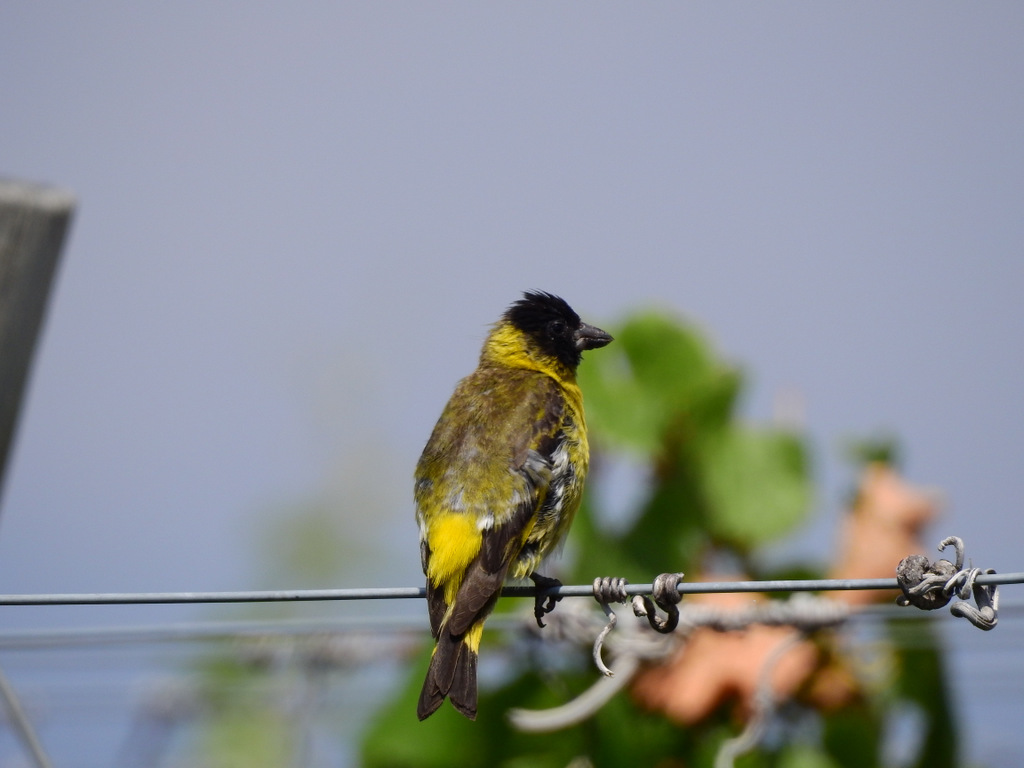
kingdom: Animalia
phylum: Chordata
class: Aves
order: Passeriformes
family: Fringillidae
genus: Spinus
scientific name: Spinus magellanicus
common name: Hooded siskin
